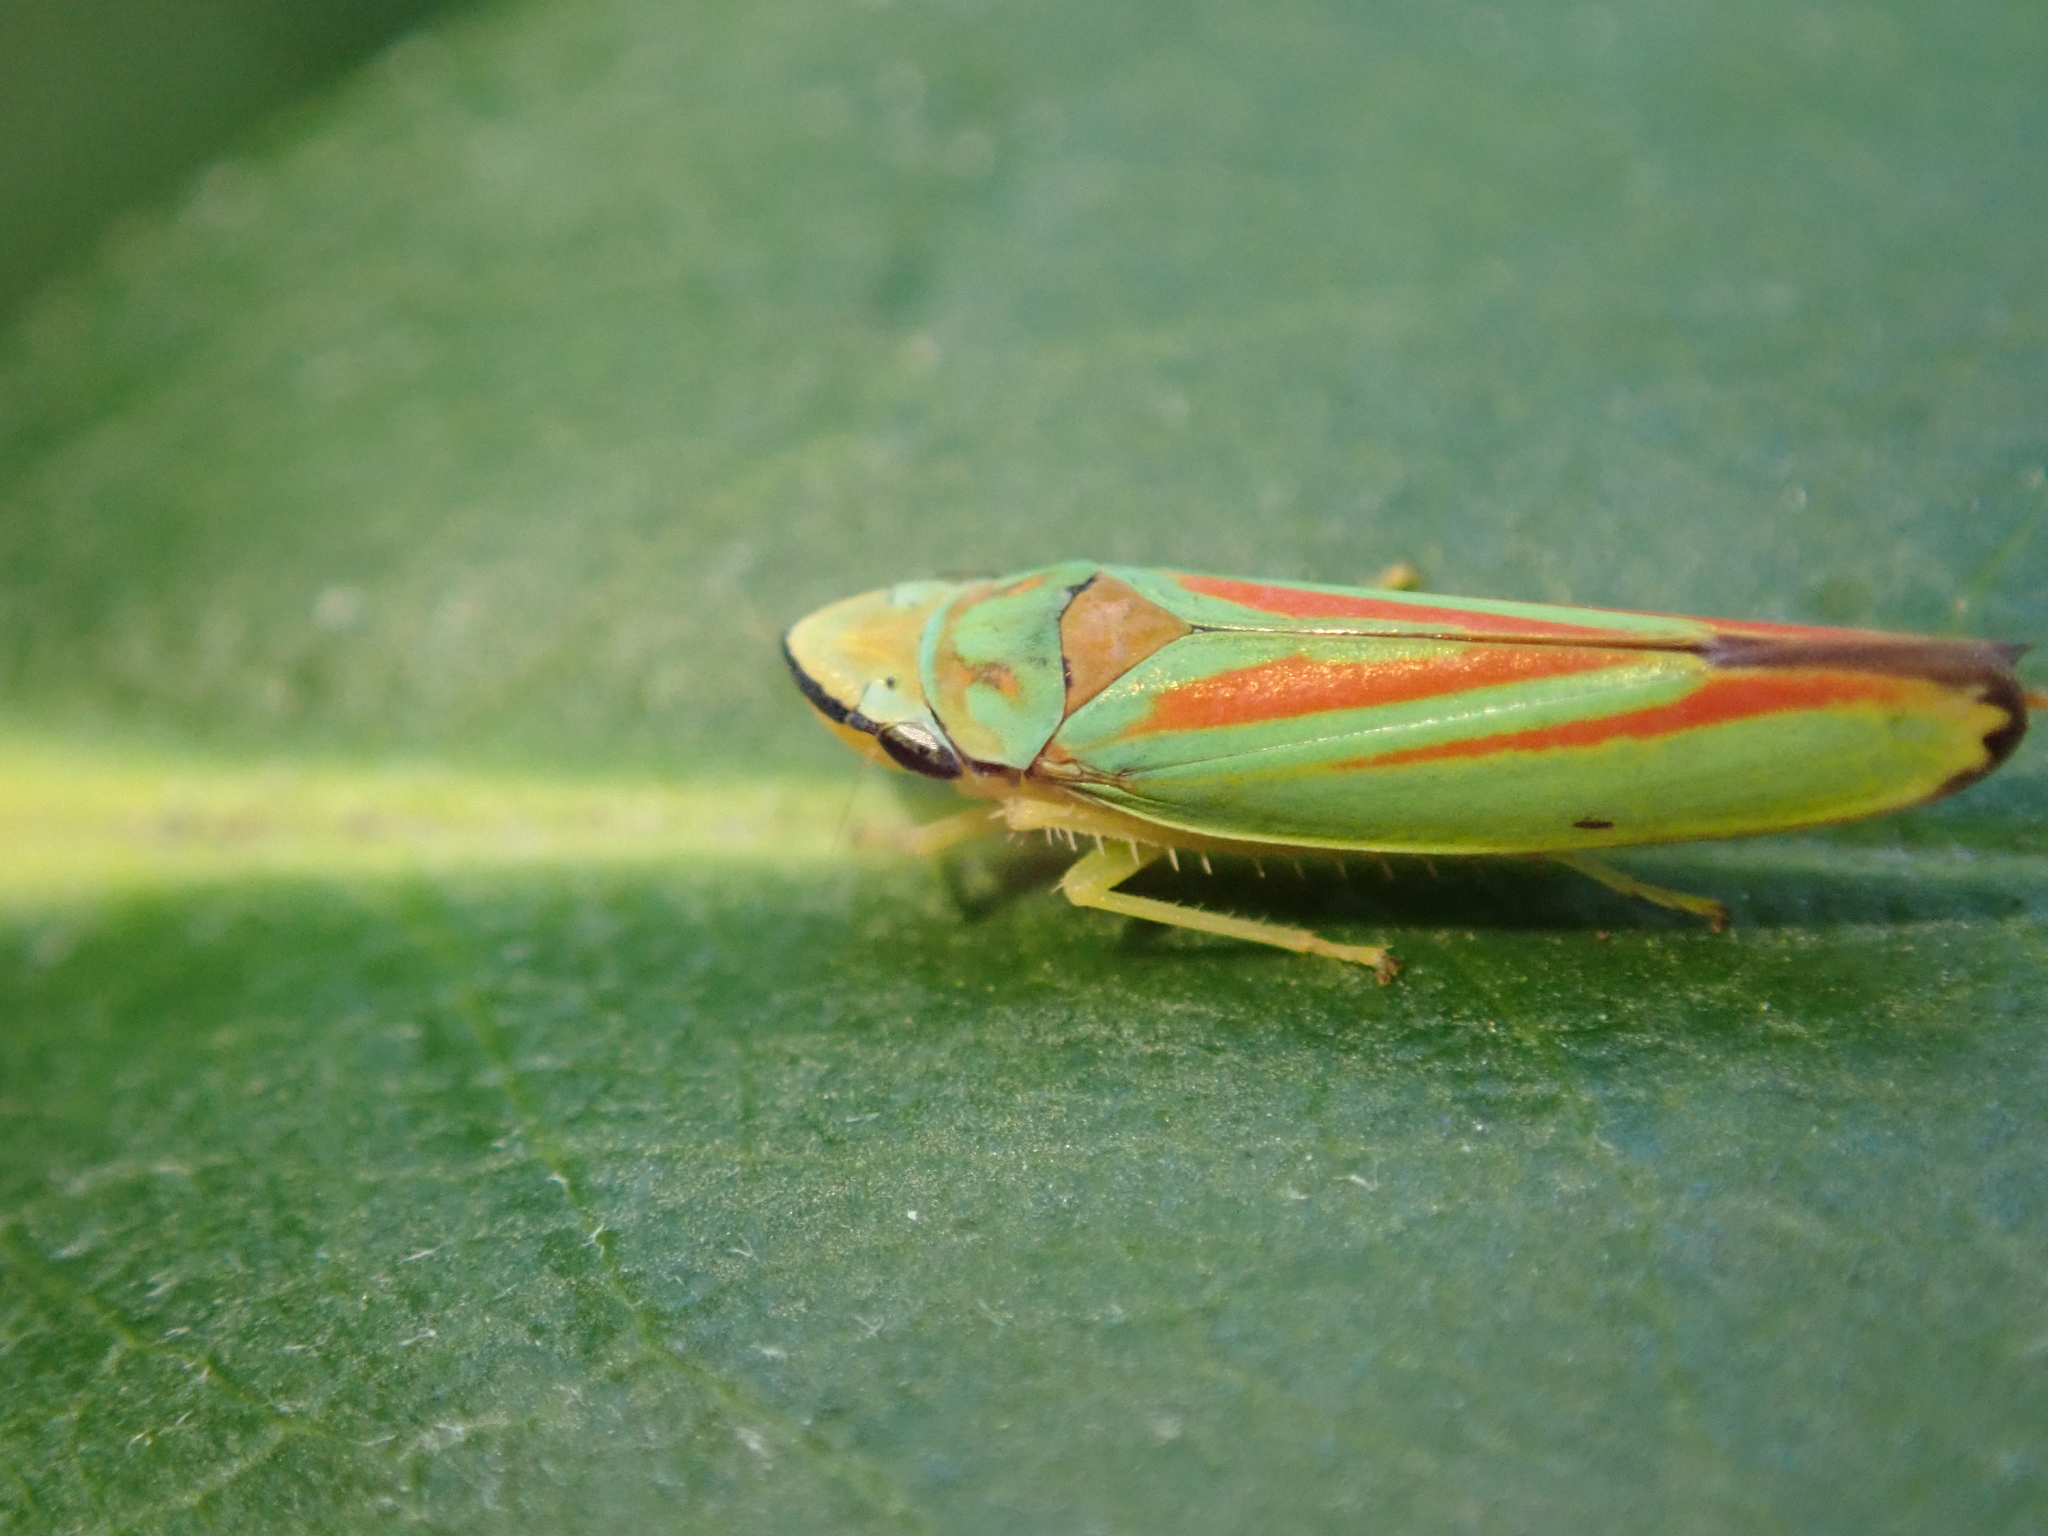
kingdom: Animalia
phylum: Arthropoda
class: Insecta
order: Hemiptera
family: Cicadellidae
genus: Graphocephala
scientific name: Graphocephala fennahi
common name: Rhododendron leafhopper
